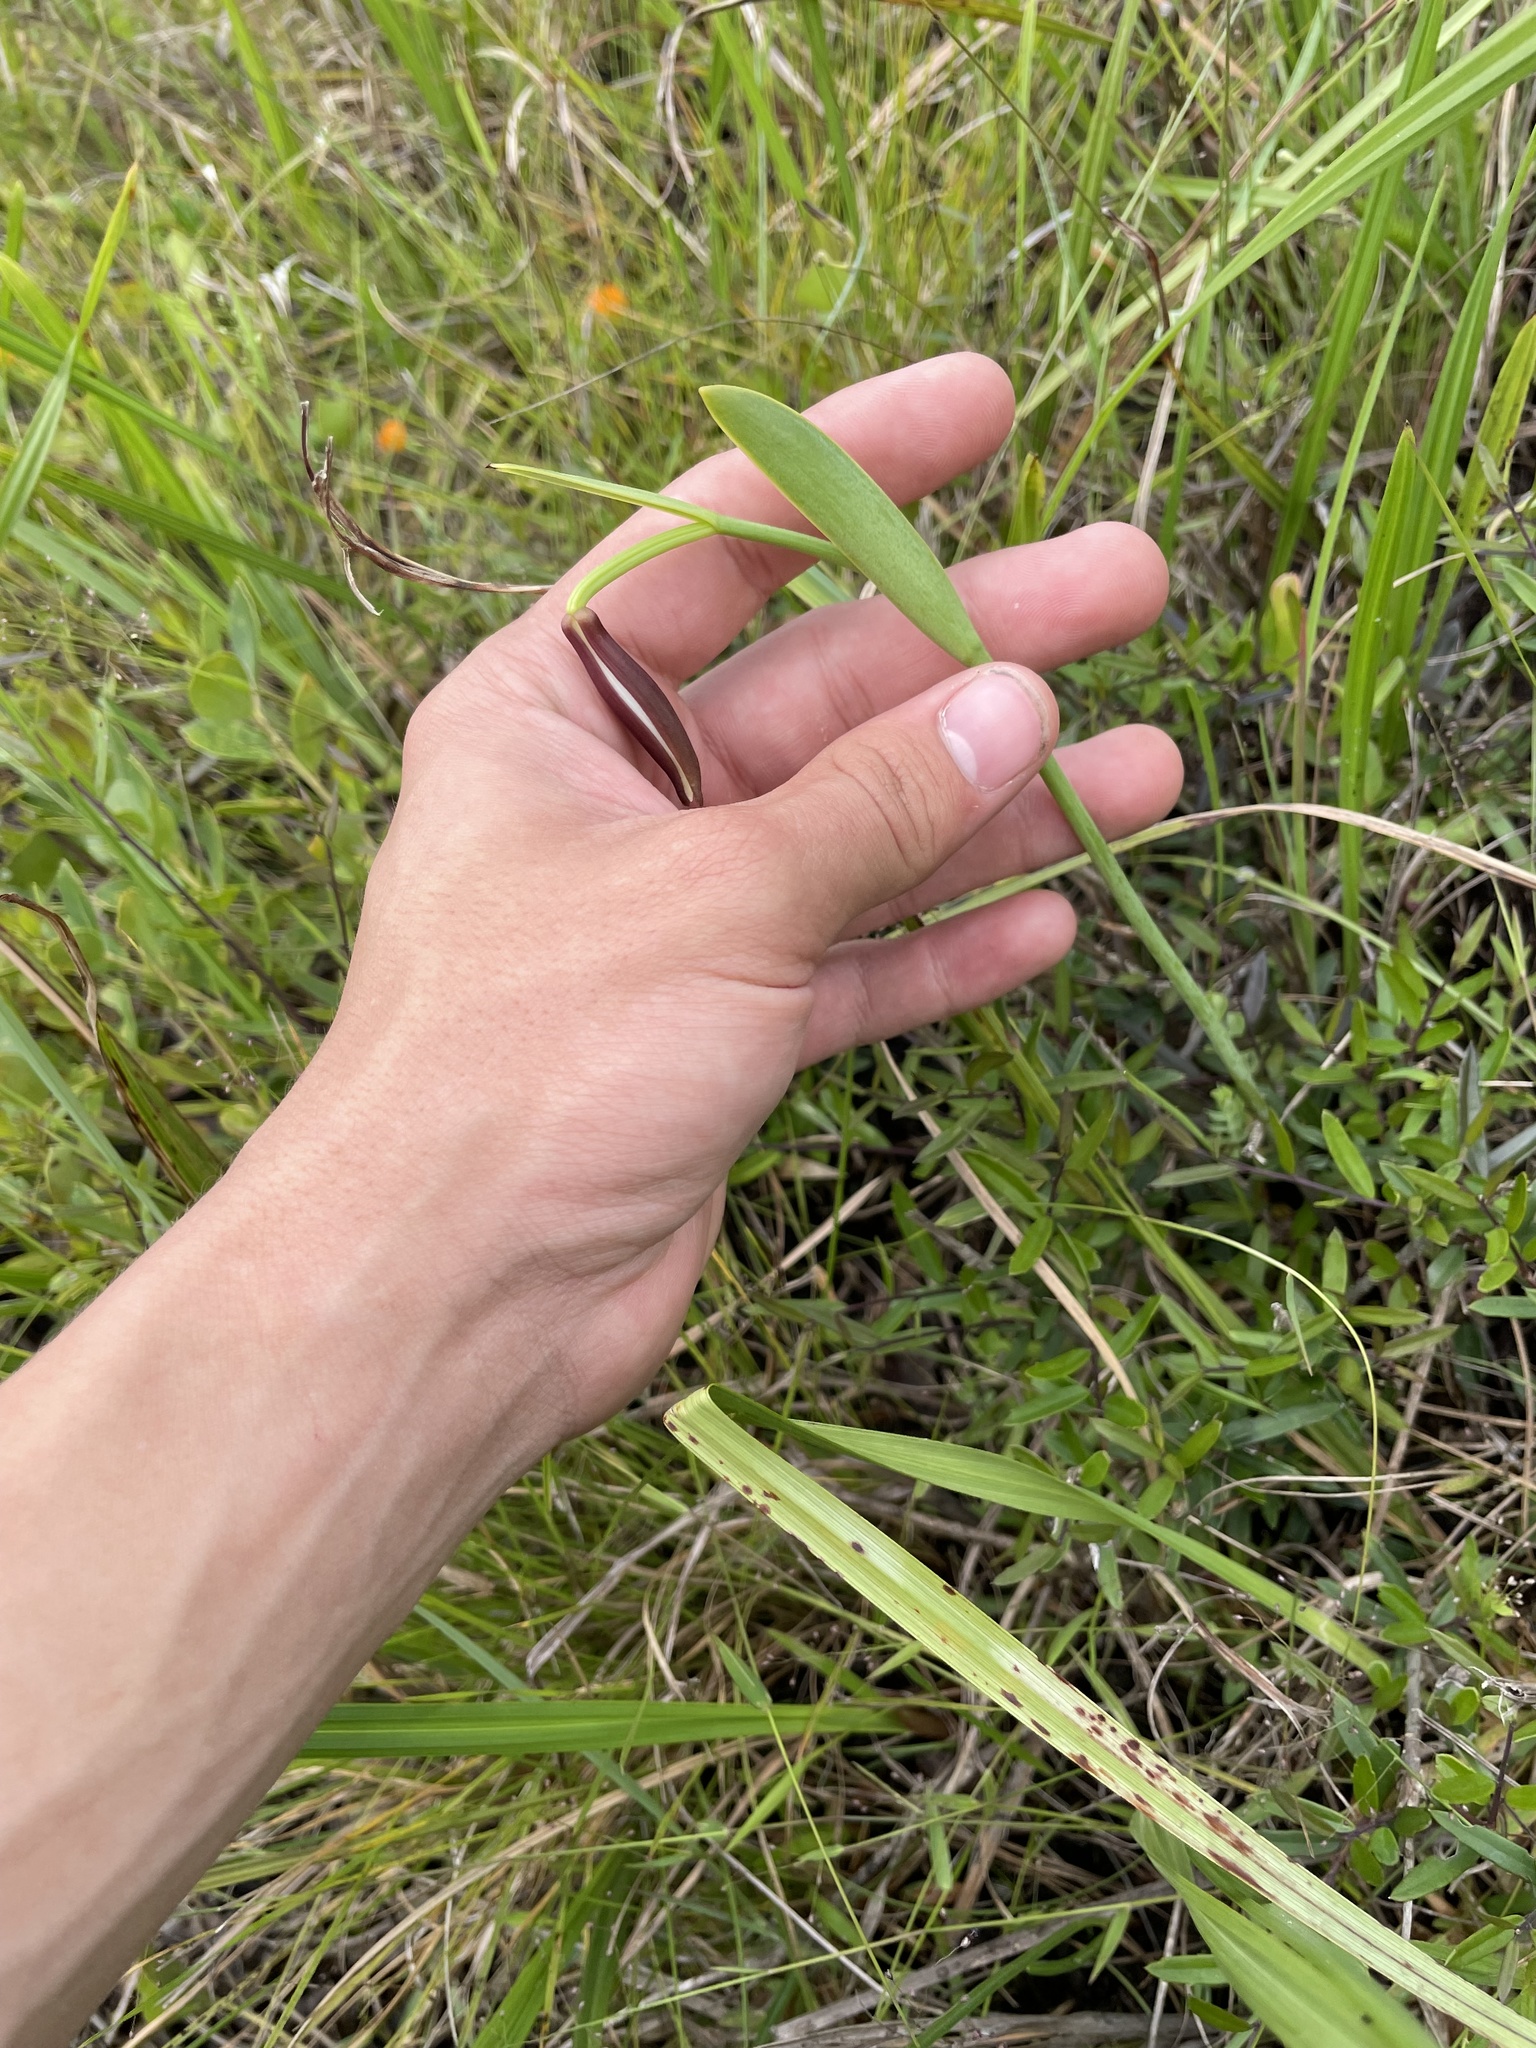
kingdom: Plantae
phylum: Tracheophyta
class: Liliopsida
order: Asparagales
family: Orchidaceae
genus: Cleistesiopsis
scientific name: Cleistesiopsis divaricata
